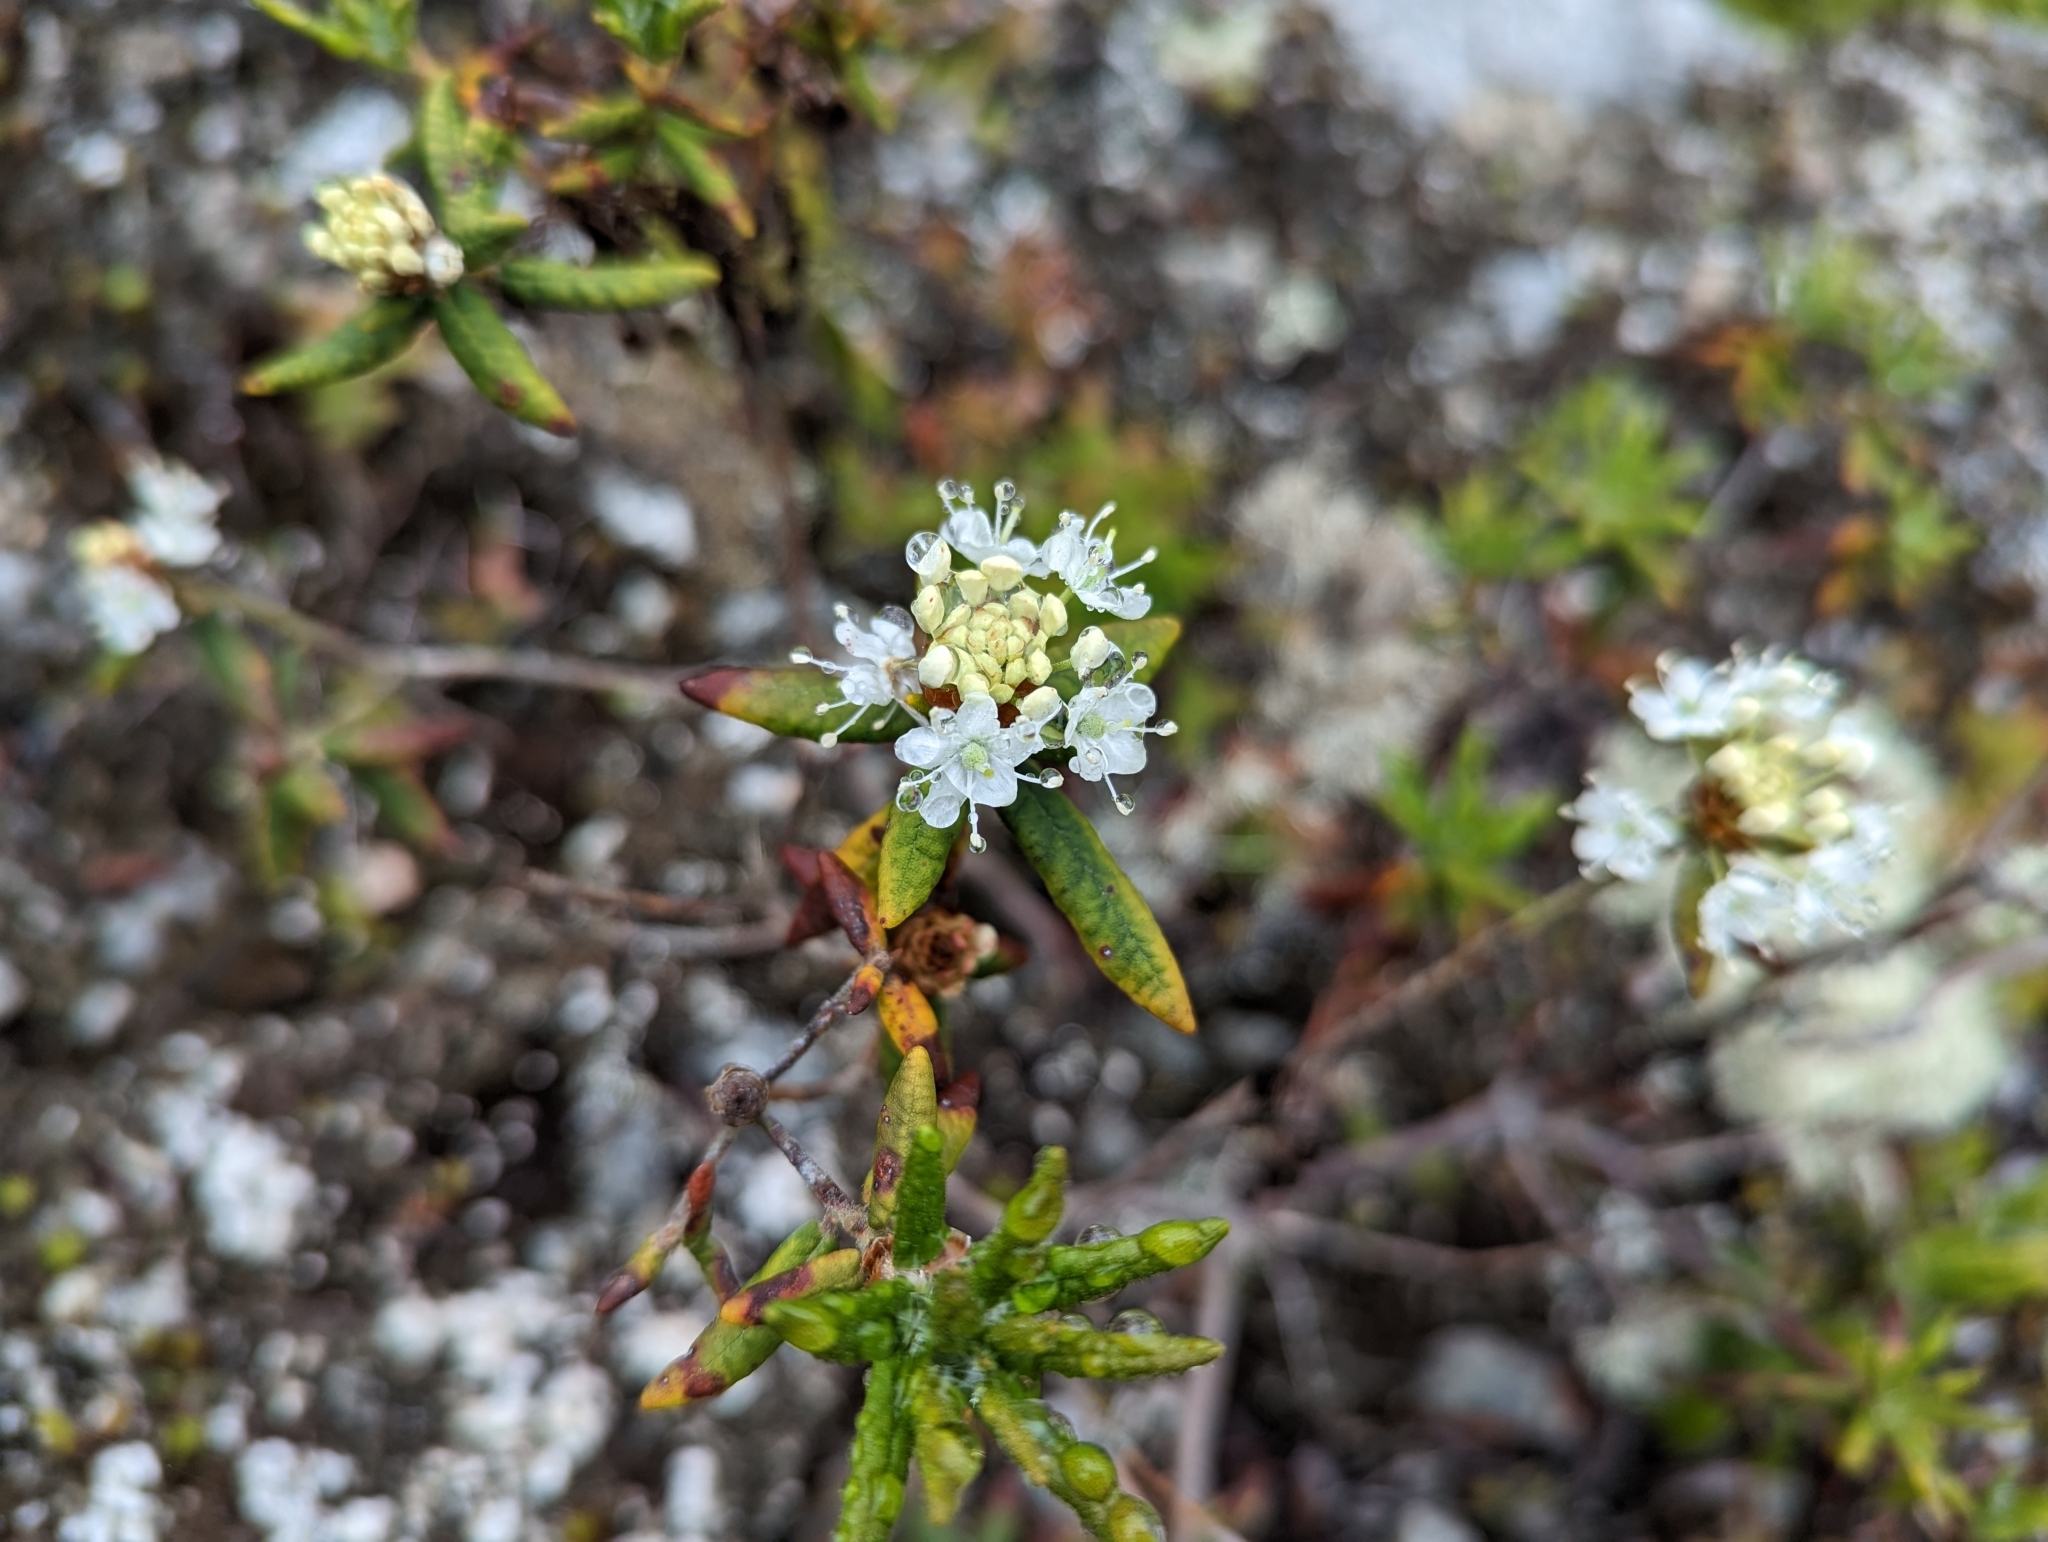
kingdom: Plantae
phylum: Tracheophyta
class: Magnoliopsida
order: Ericales
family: Ericaceae
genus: Rhododendron
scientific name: Rhododendron groenlandicum
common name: Bog labrador tea
